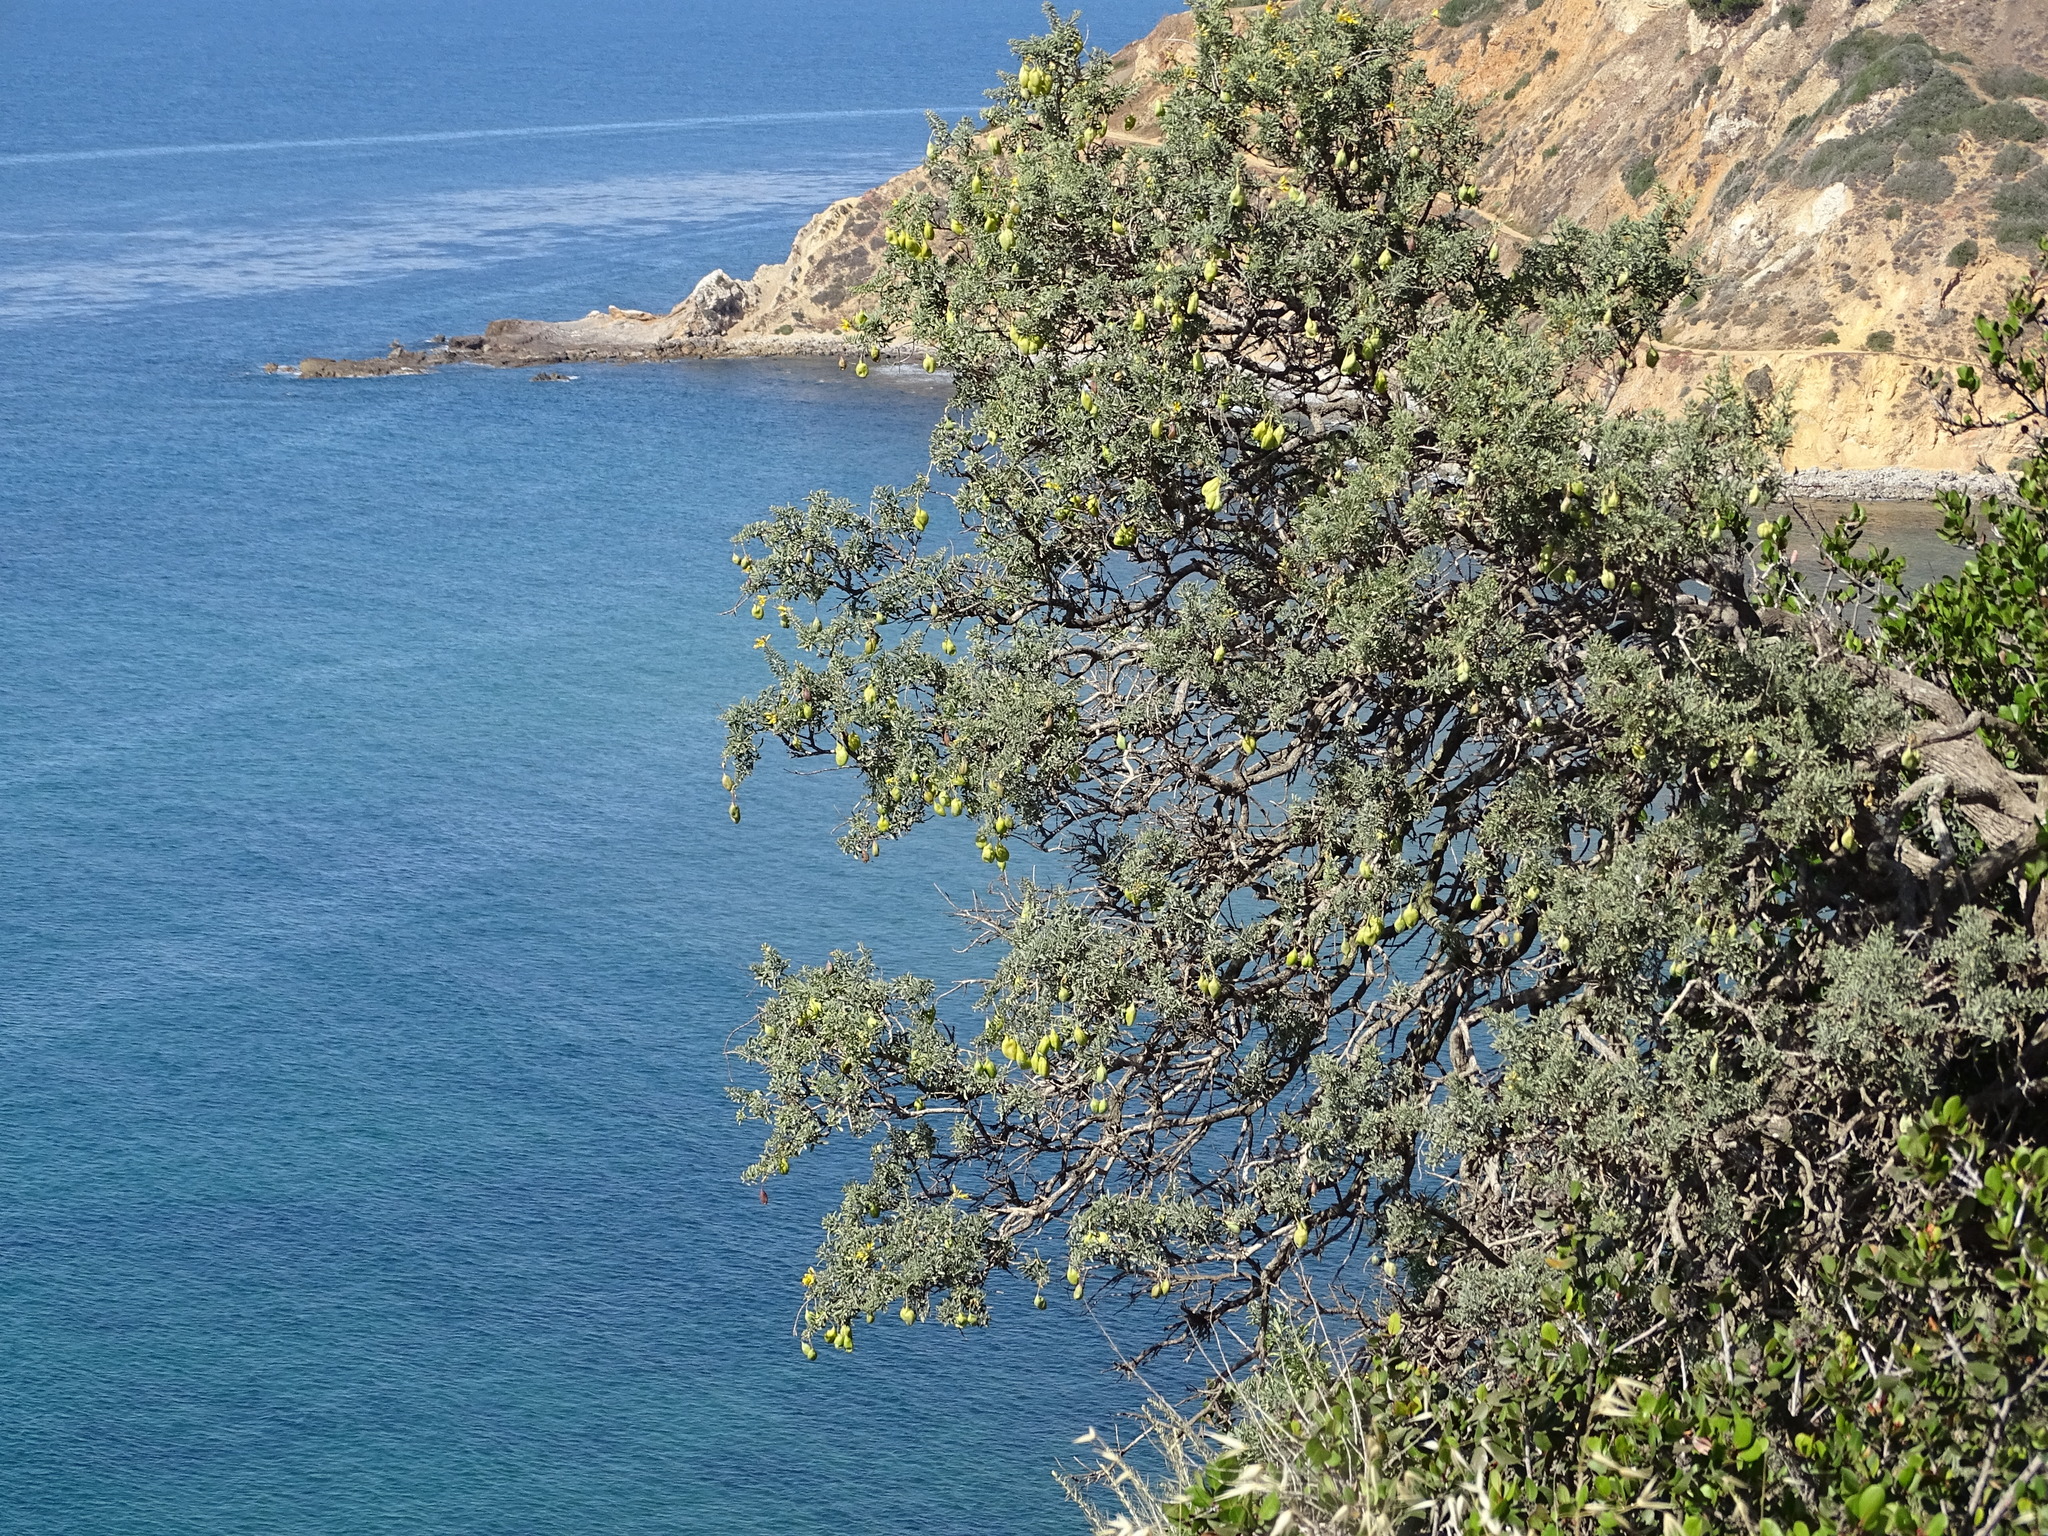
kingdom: Plantae
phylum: Tracheophyta
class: Magnoliopsida
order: Brassicales
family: Cleomaceae
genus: Cleomella
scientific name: Cleomella arborea
